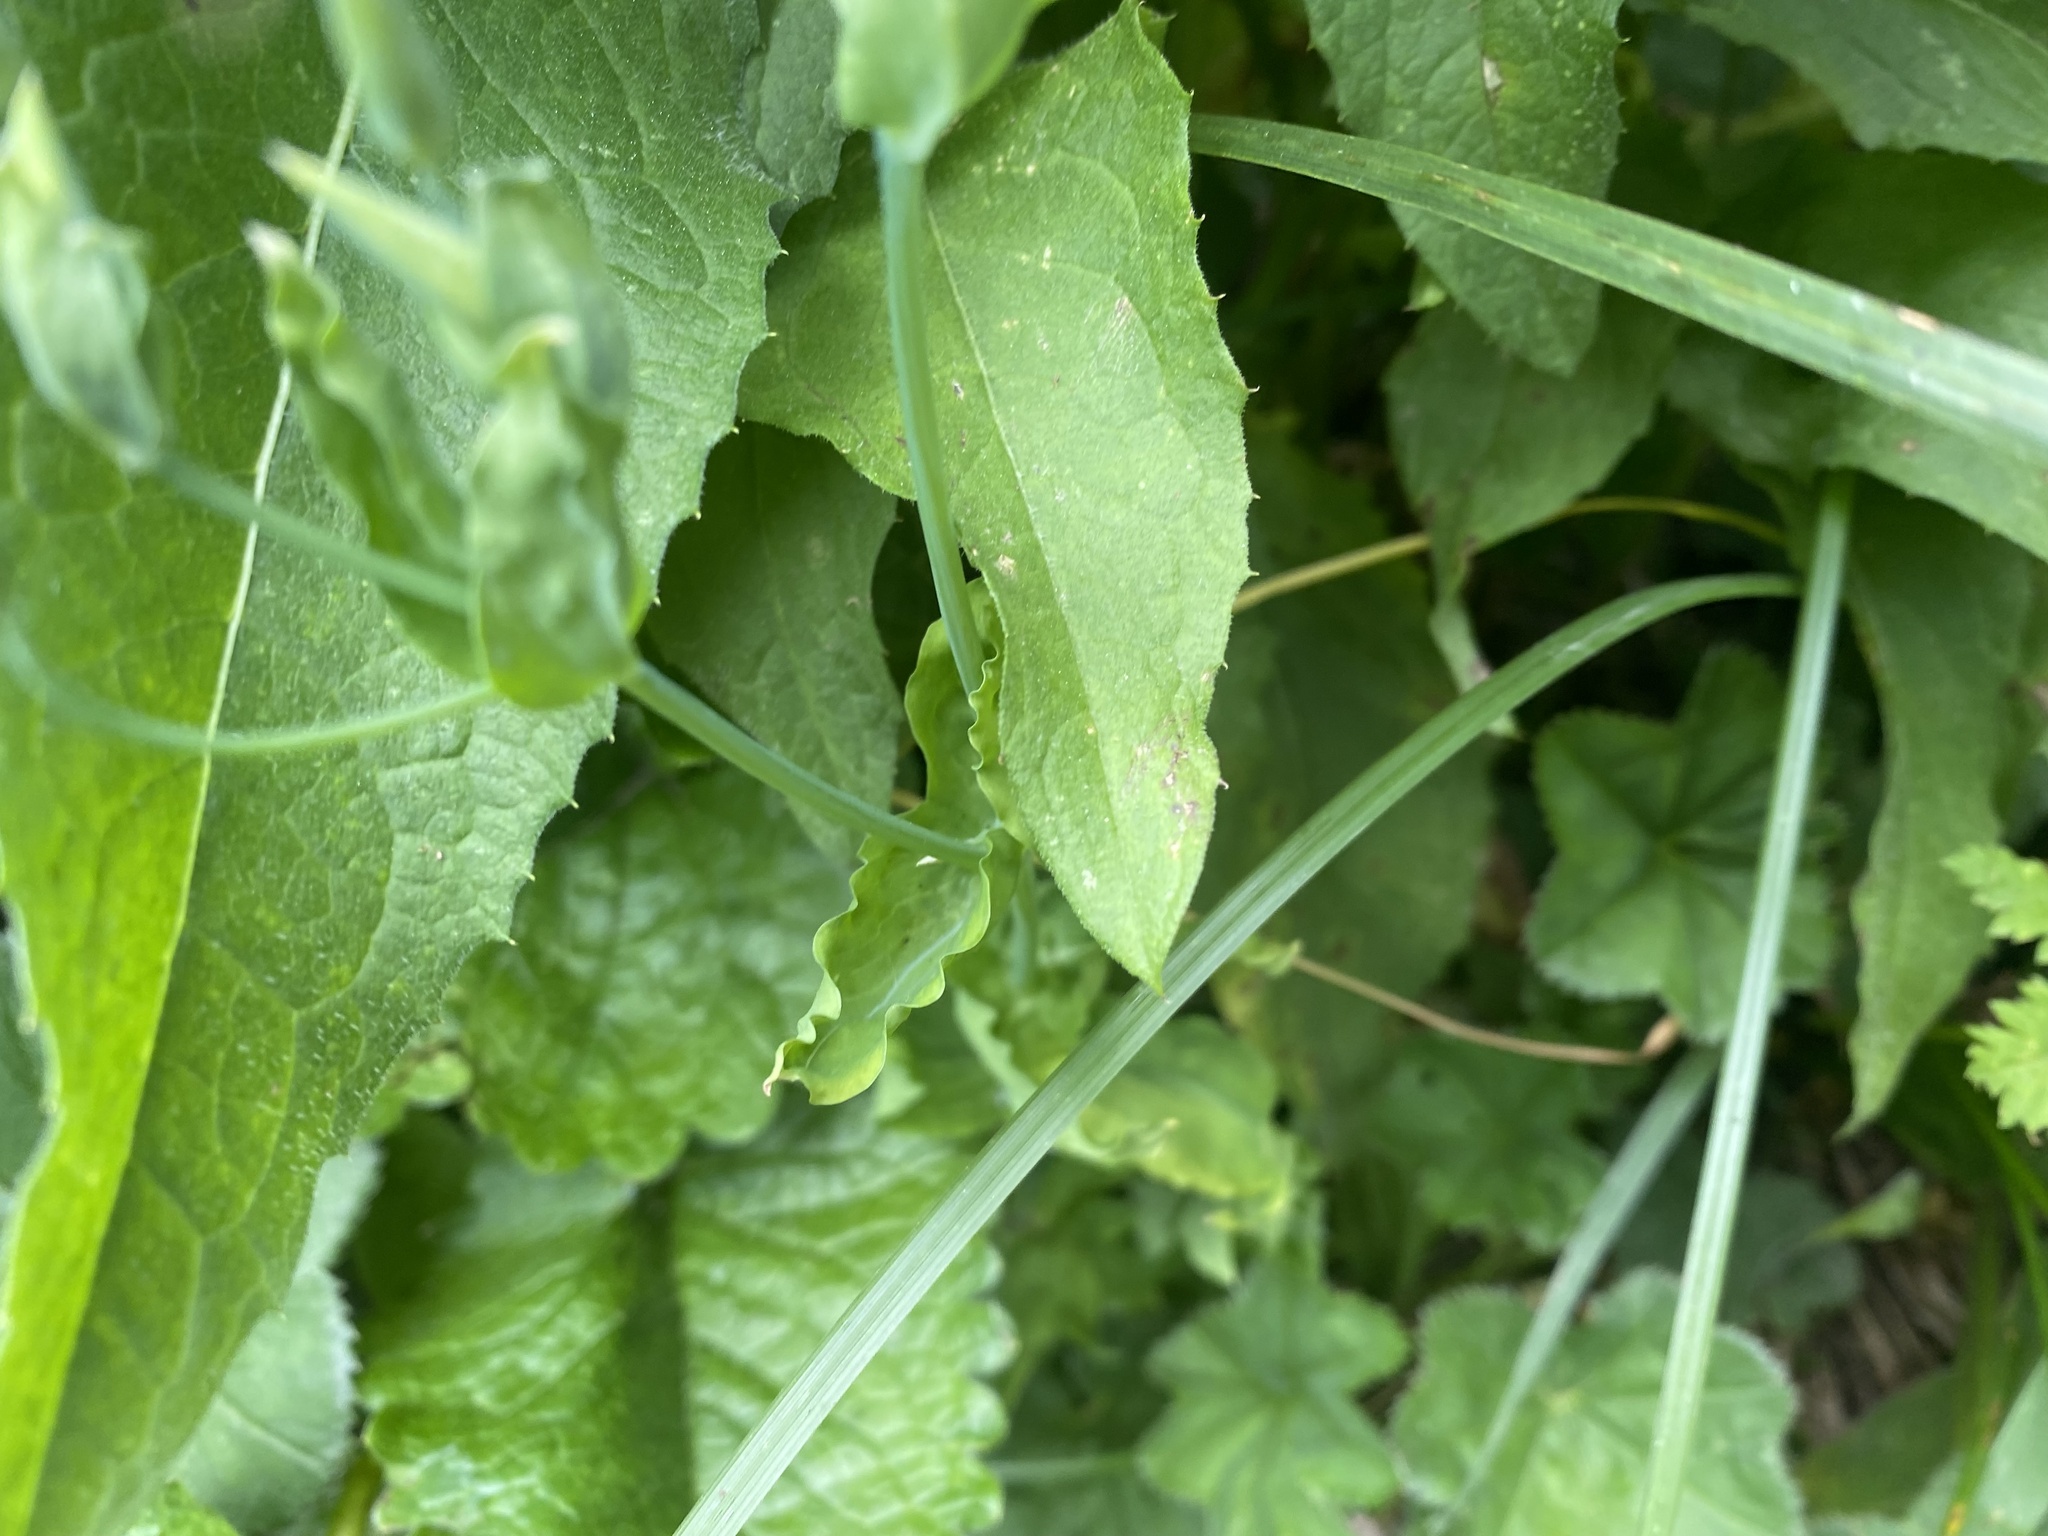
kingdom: Plantae
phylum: Tracheophyta
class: Magnoliopsida
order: Caryophyllales
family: Caryophyllaceae
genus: Cerastium
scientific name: Cerastium davuricum
